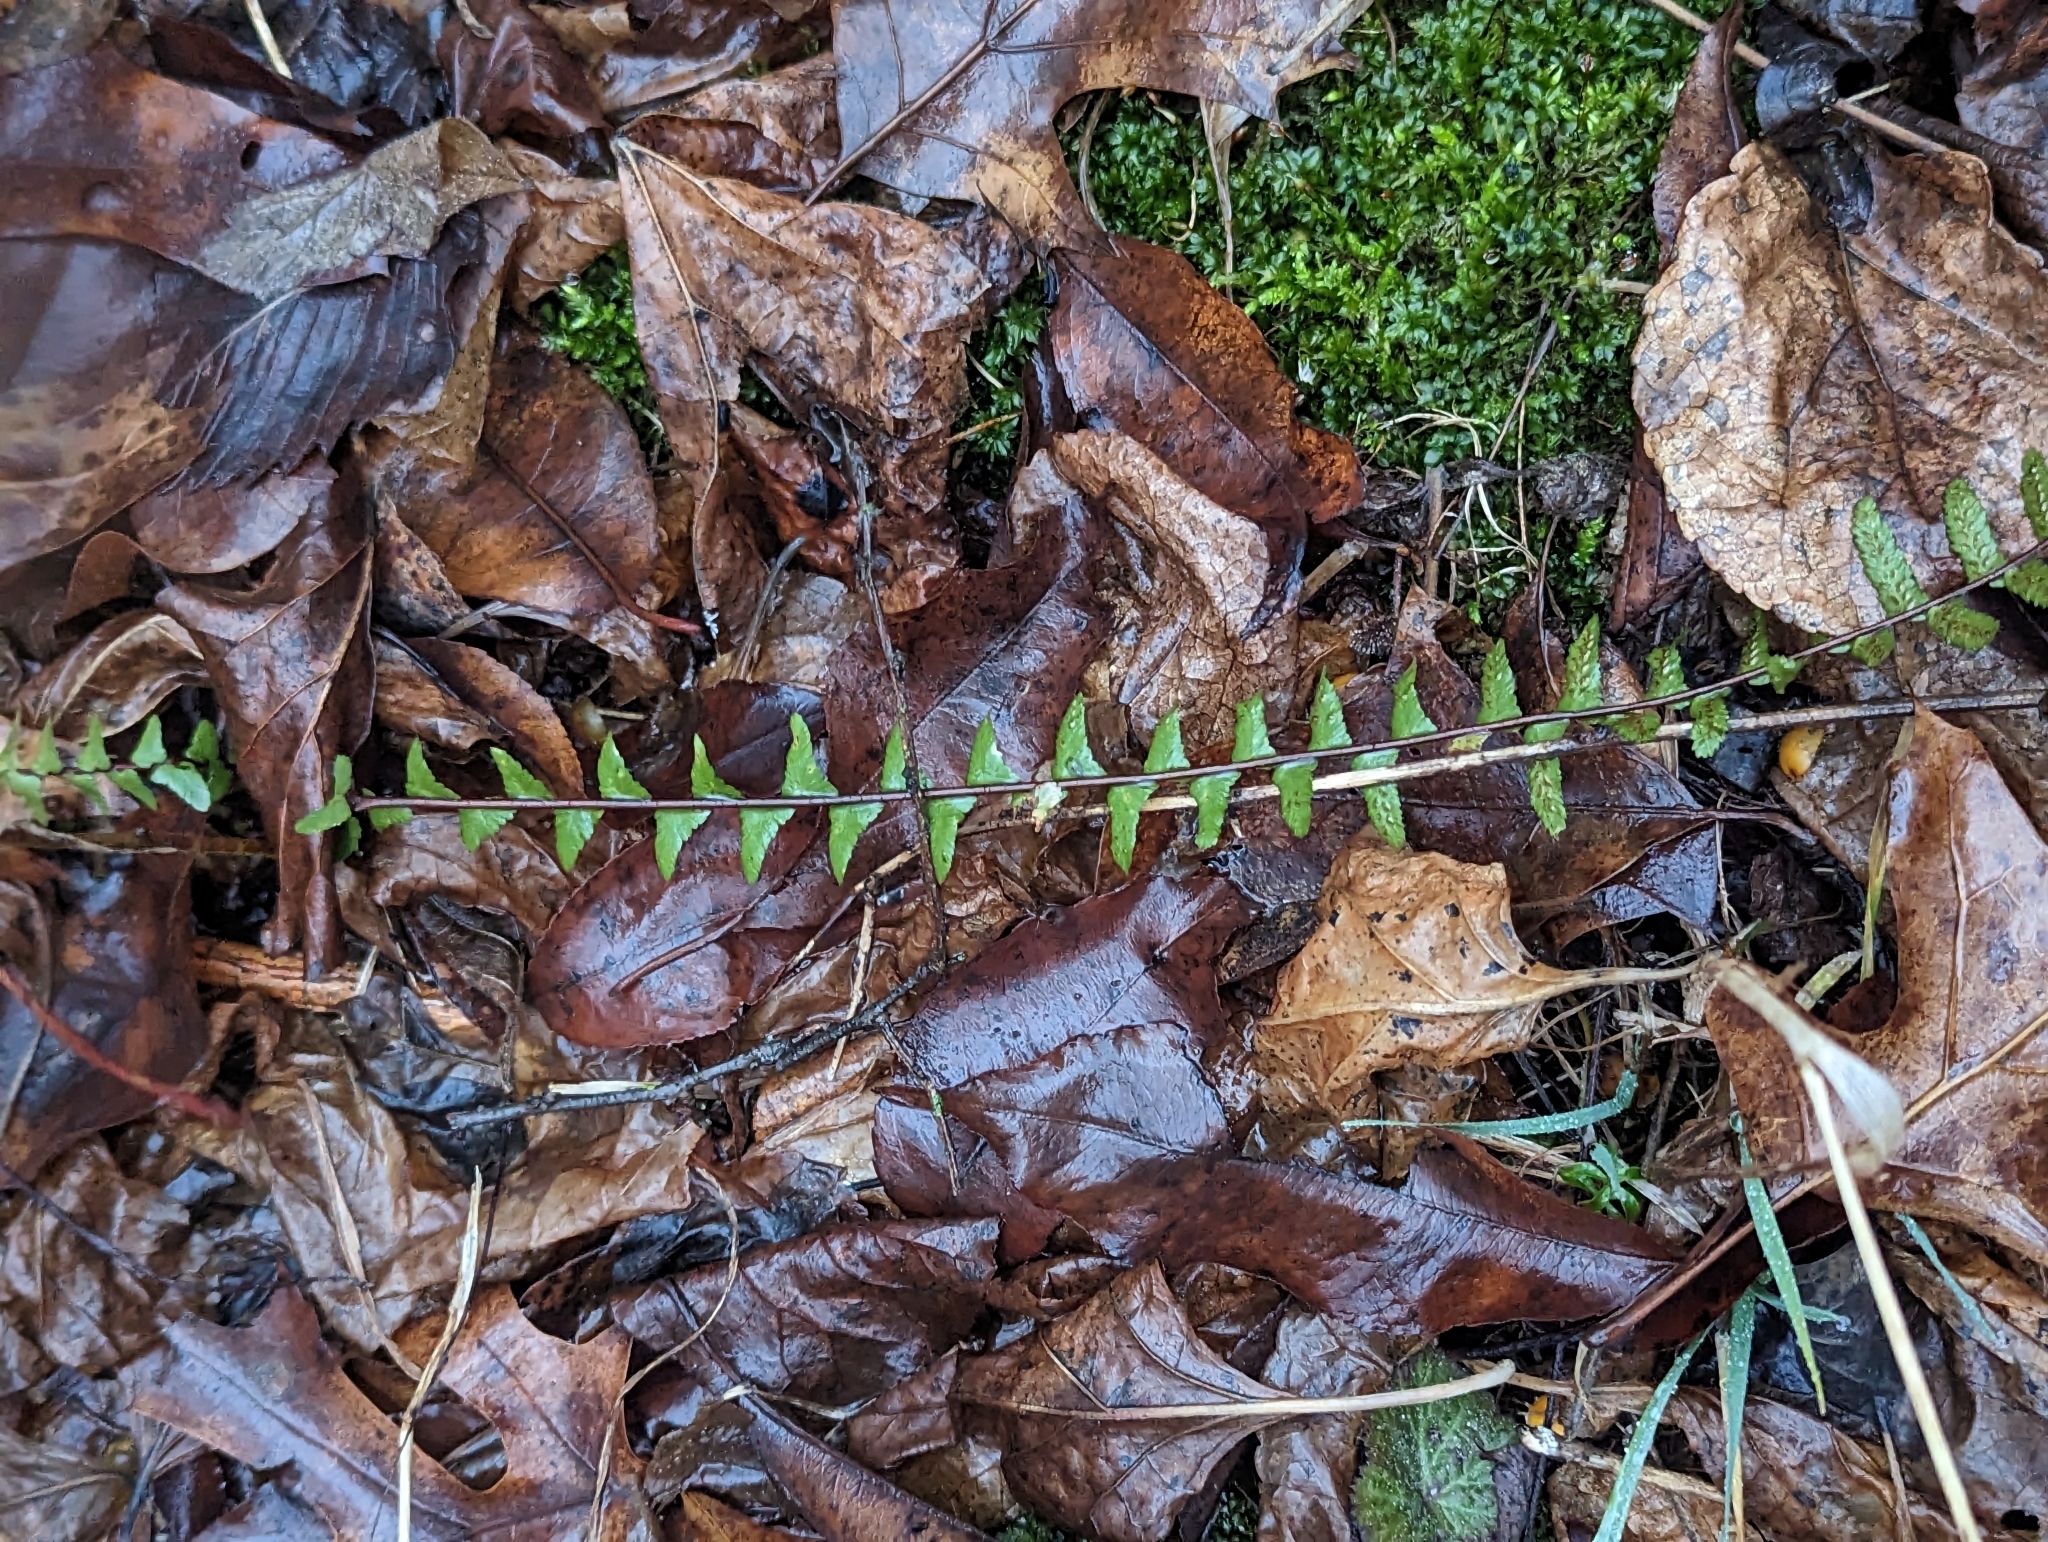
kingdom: Plantae
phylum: Tracheophyta
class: Polypodiopsida
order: Polypodiales
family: Aspleniaceae
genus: Asplenium
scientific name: Asplenium platyneuron
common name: Ebony spleenwort
